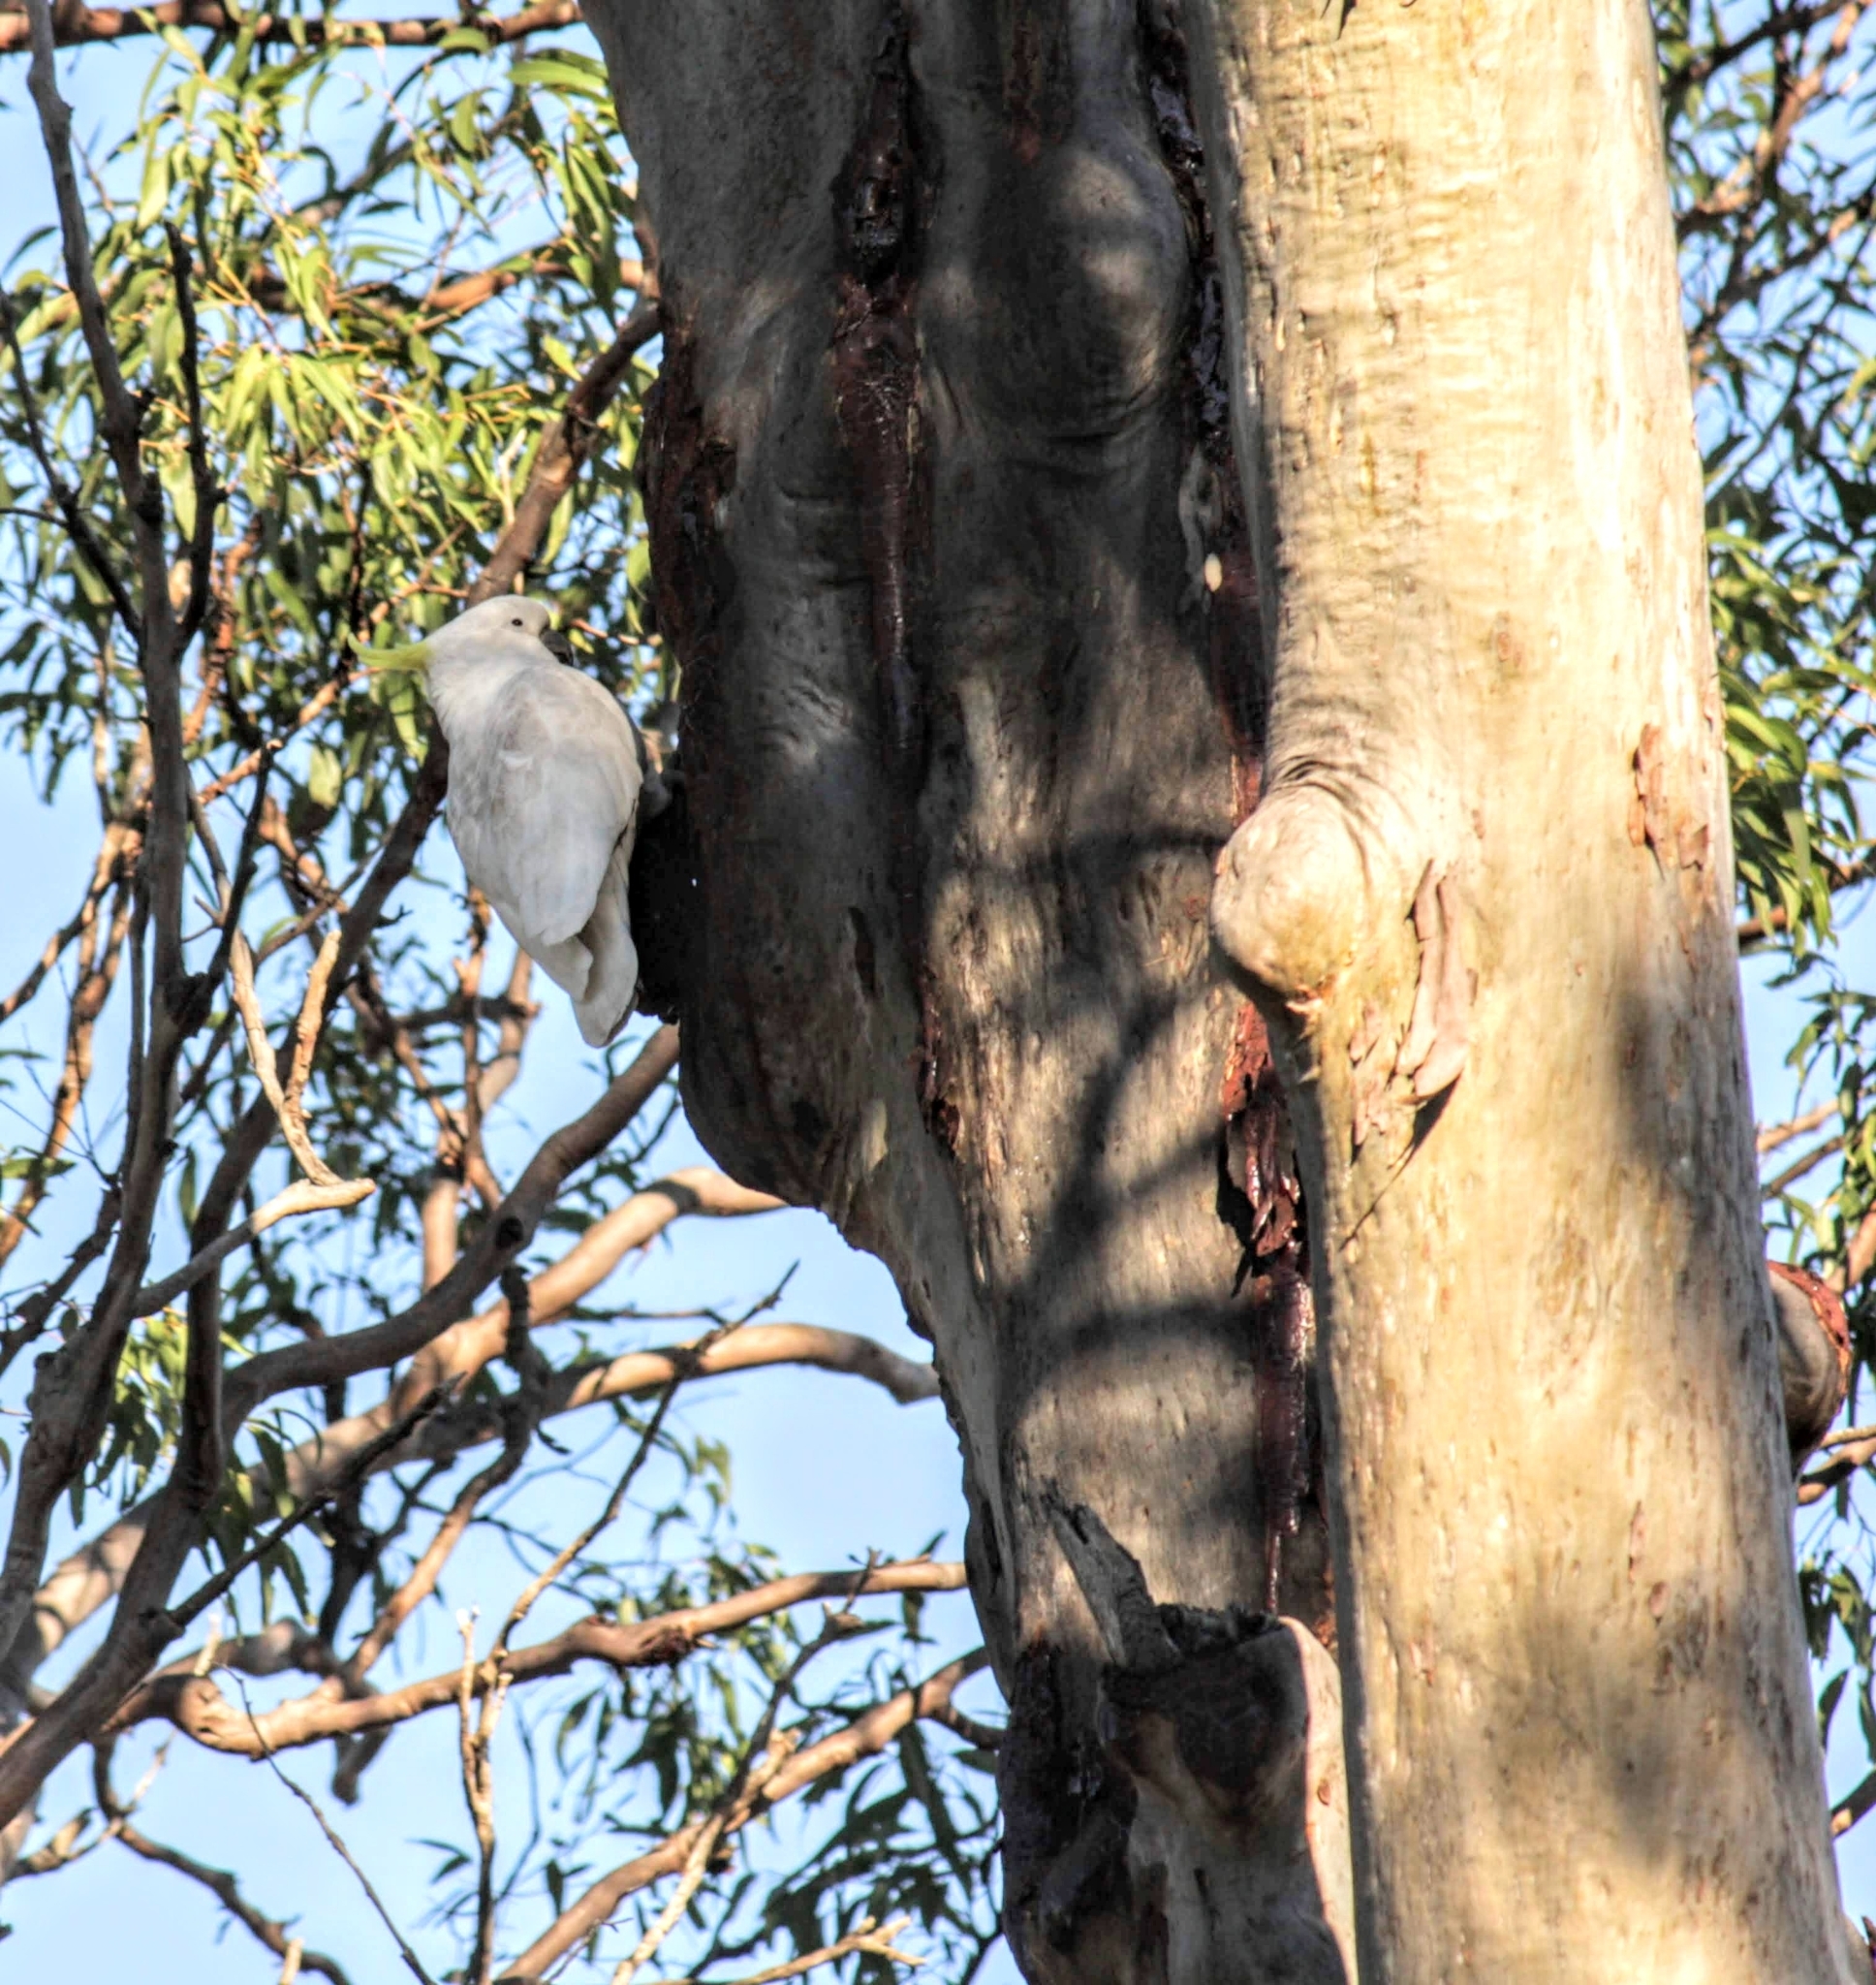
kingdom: Animalia
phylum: Chordata
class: Aves
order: Psittaciformes
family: Psittacidae
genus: Cacatua
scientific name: Cacatua galerita
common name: Sulphur-crested cockatoo
